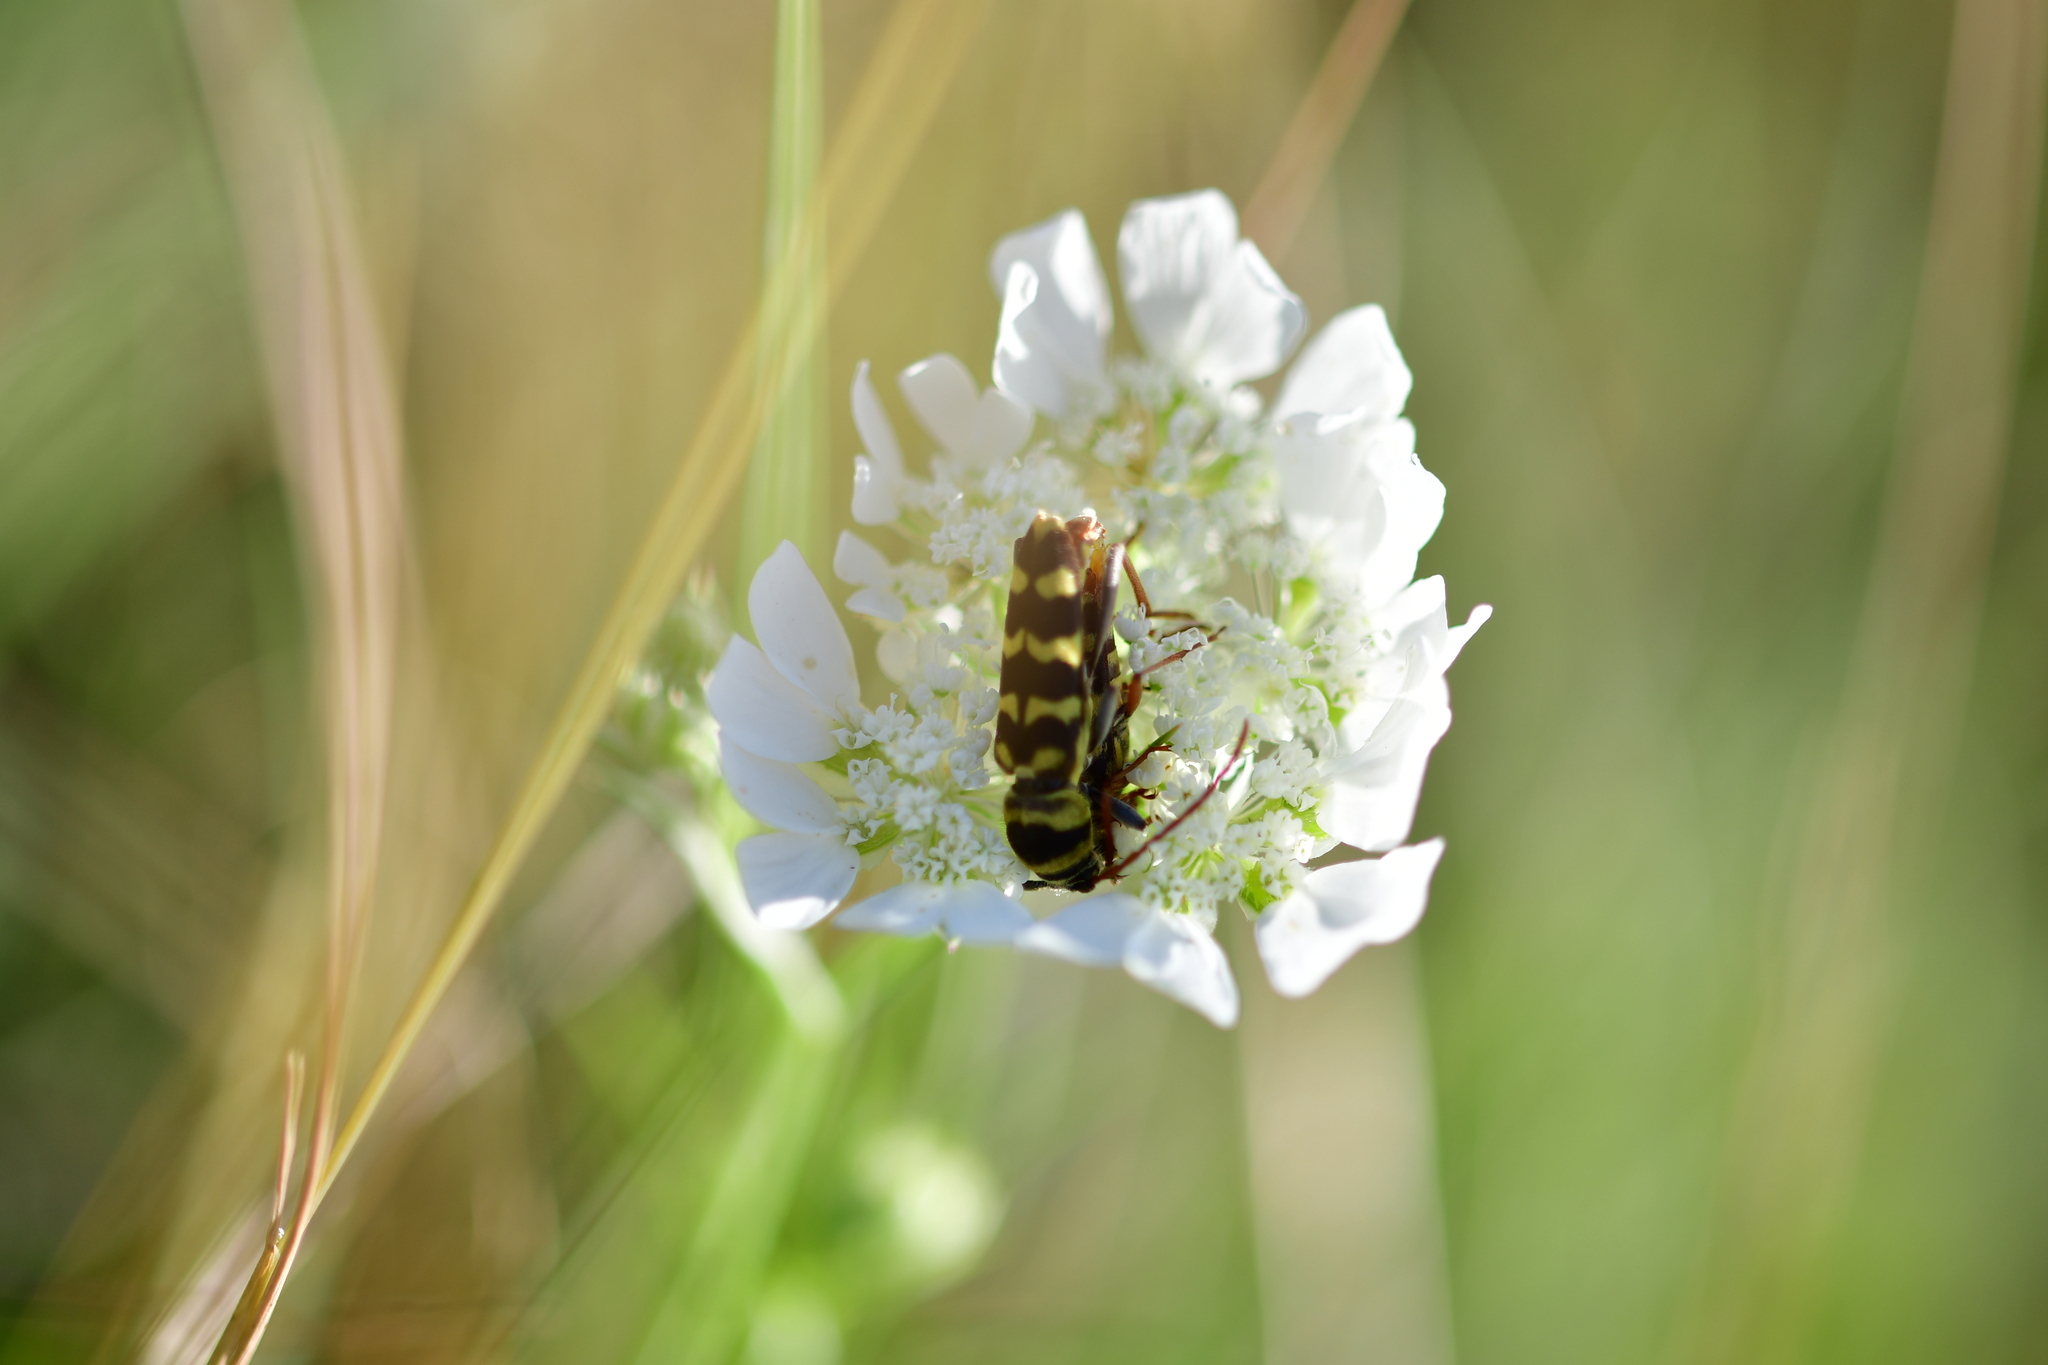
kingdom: Animalia
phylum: Arthropoda
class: Insecta
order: Coleoptera
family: Cerambycidae
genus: Plagionotus
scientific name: Plagionotus floralis
